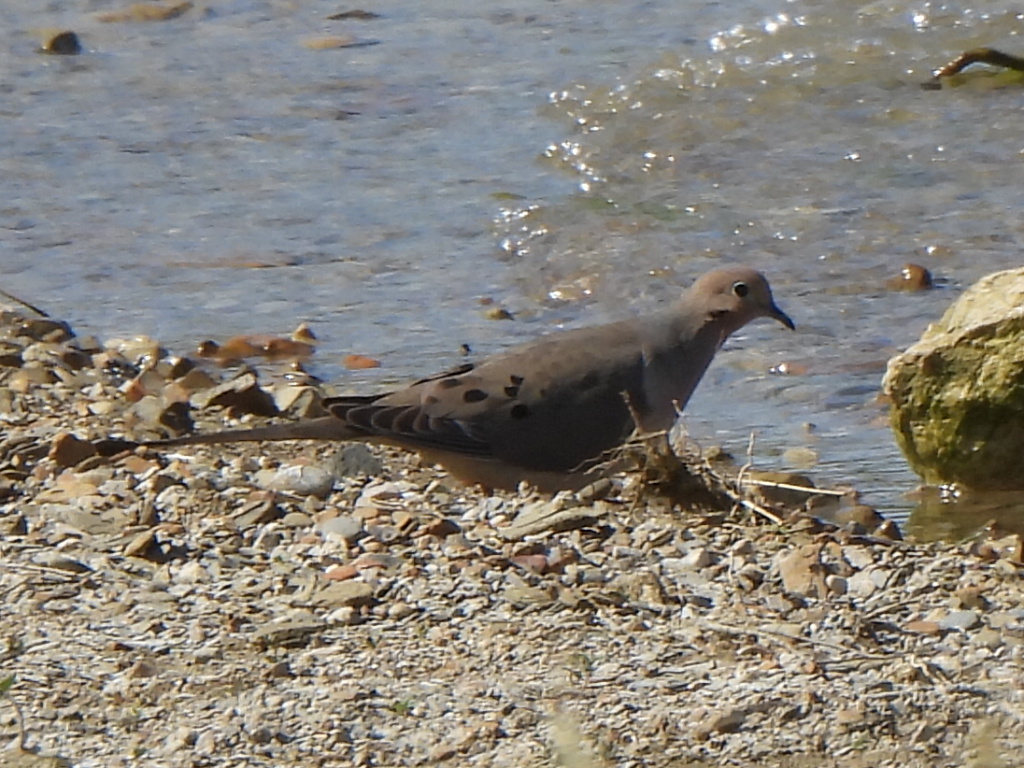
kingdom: Animalia
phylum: Chordata
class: Aves
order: Columbiformes
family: Columbidae
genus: Zenaida
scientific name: Zenaida macroura
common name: Mourning dove
